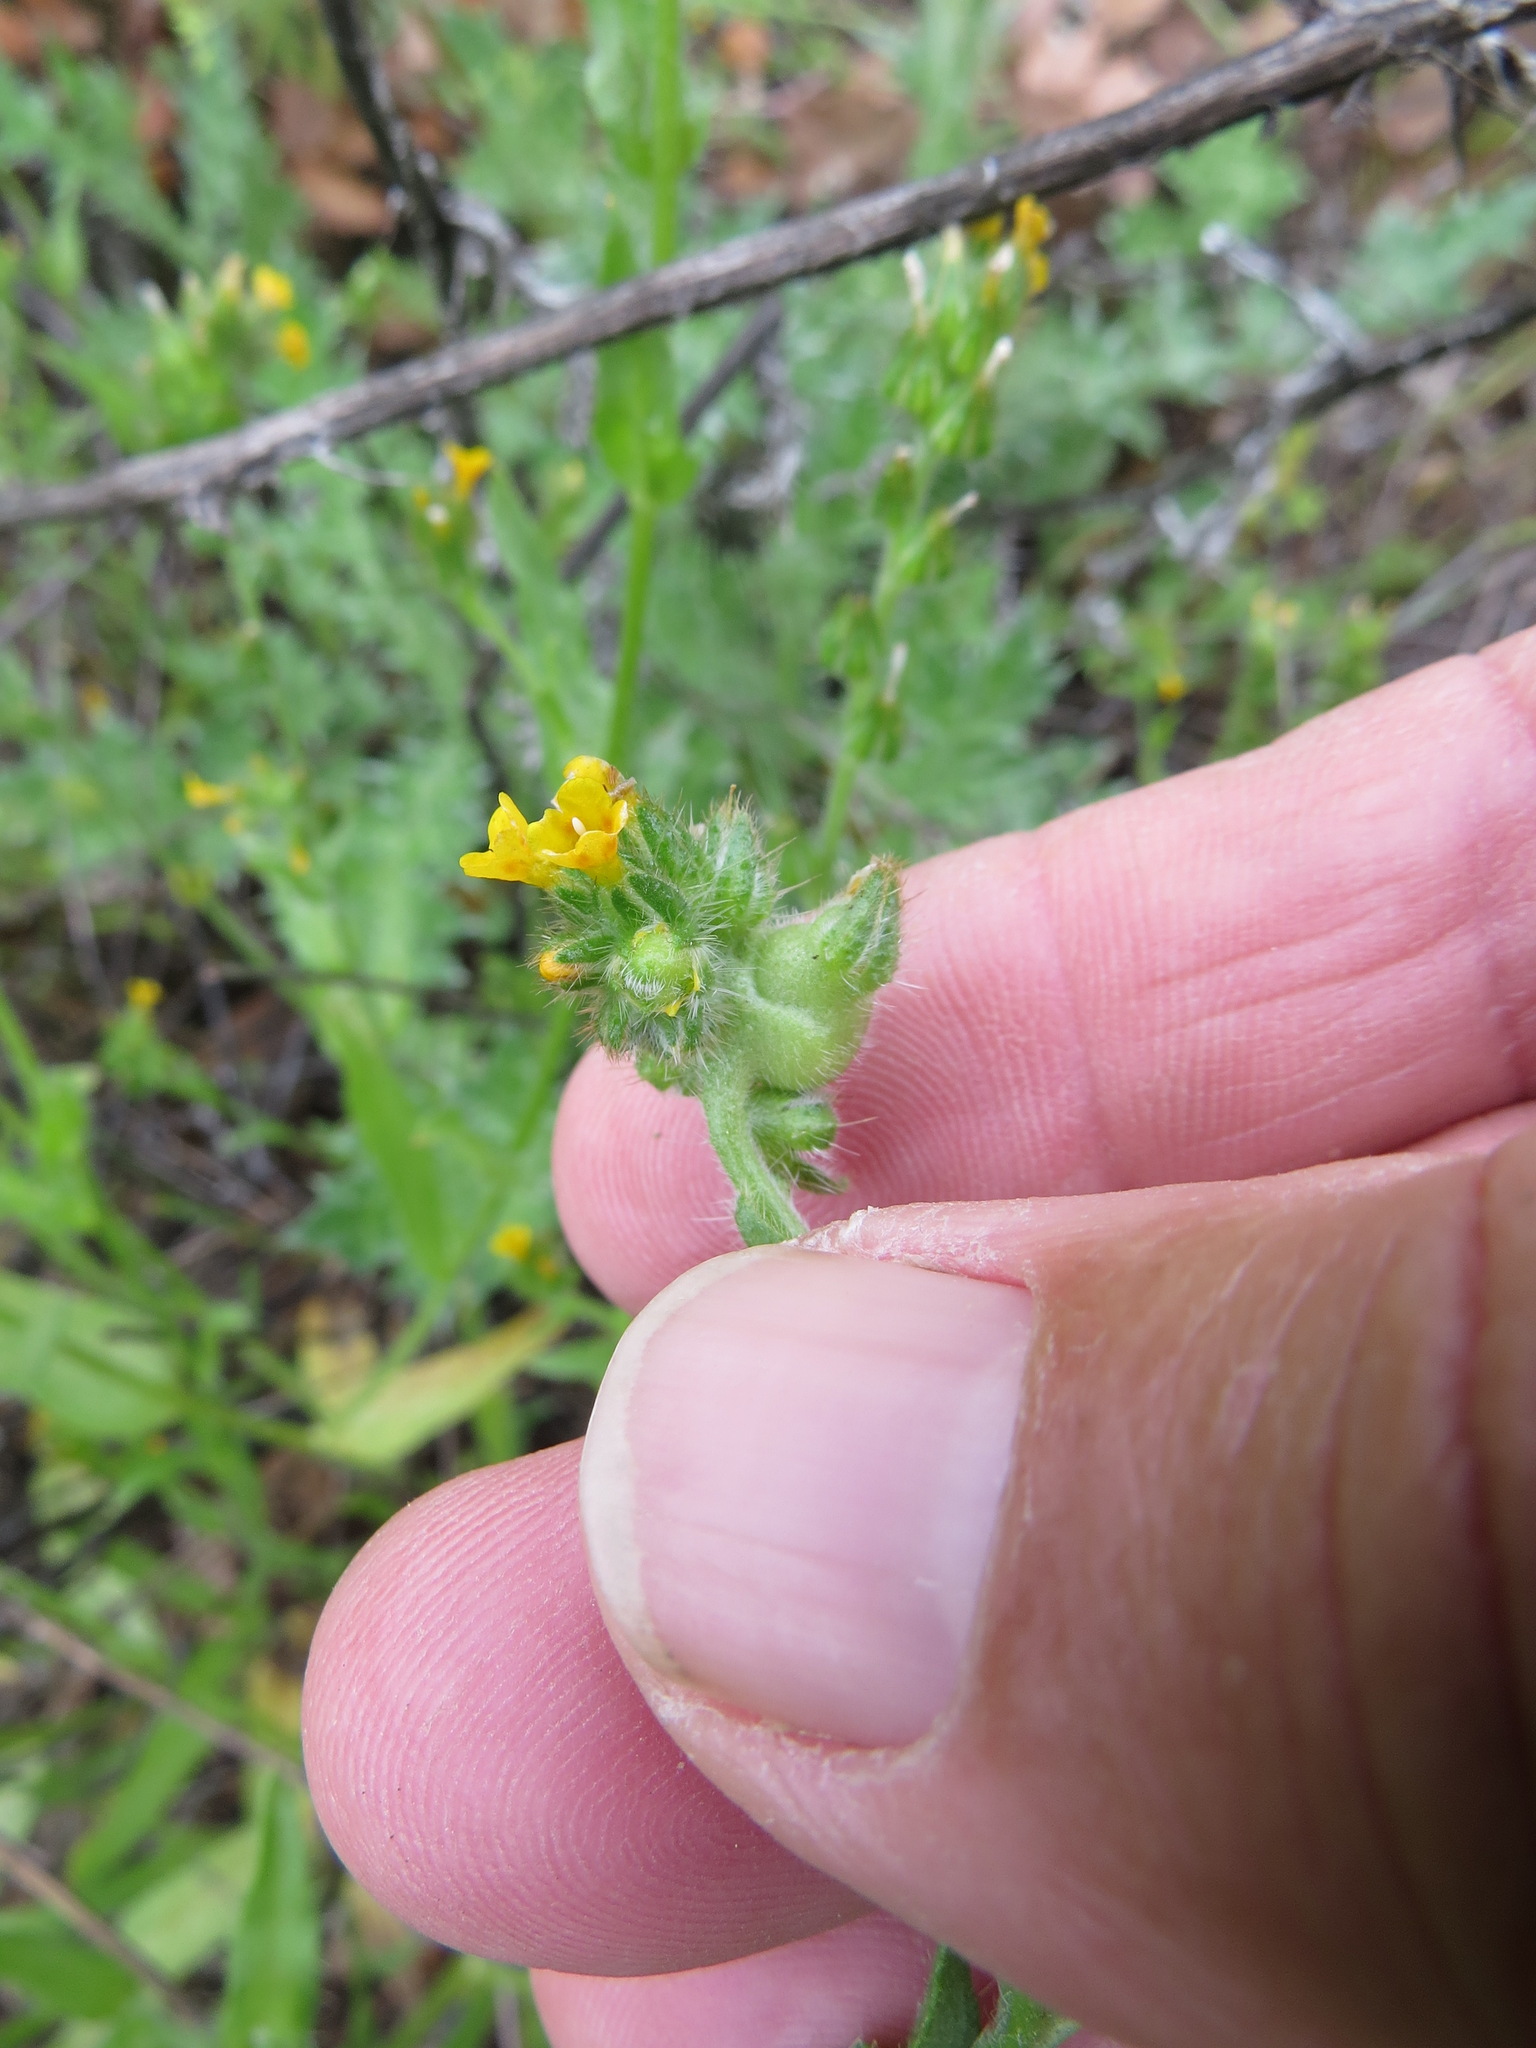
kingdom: Animalia
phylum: Arthropoda
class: Insecta
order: Diptera
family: Cecidomyiidae
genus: Schizomyia
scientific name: Schizomyia macrofila
